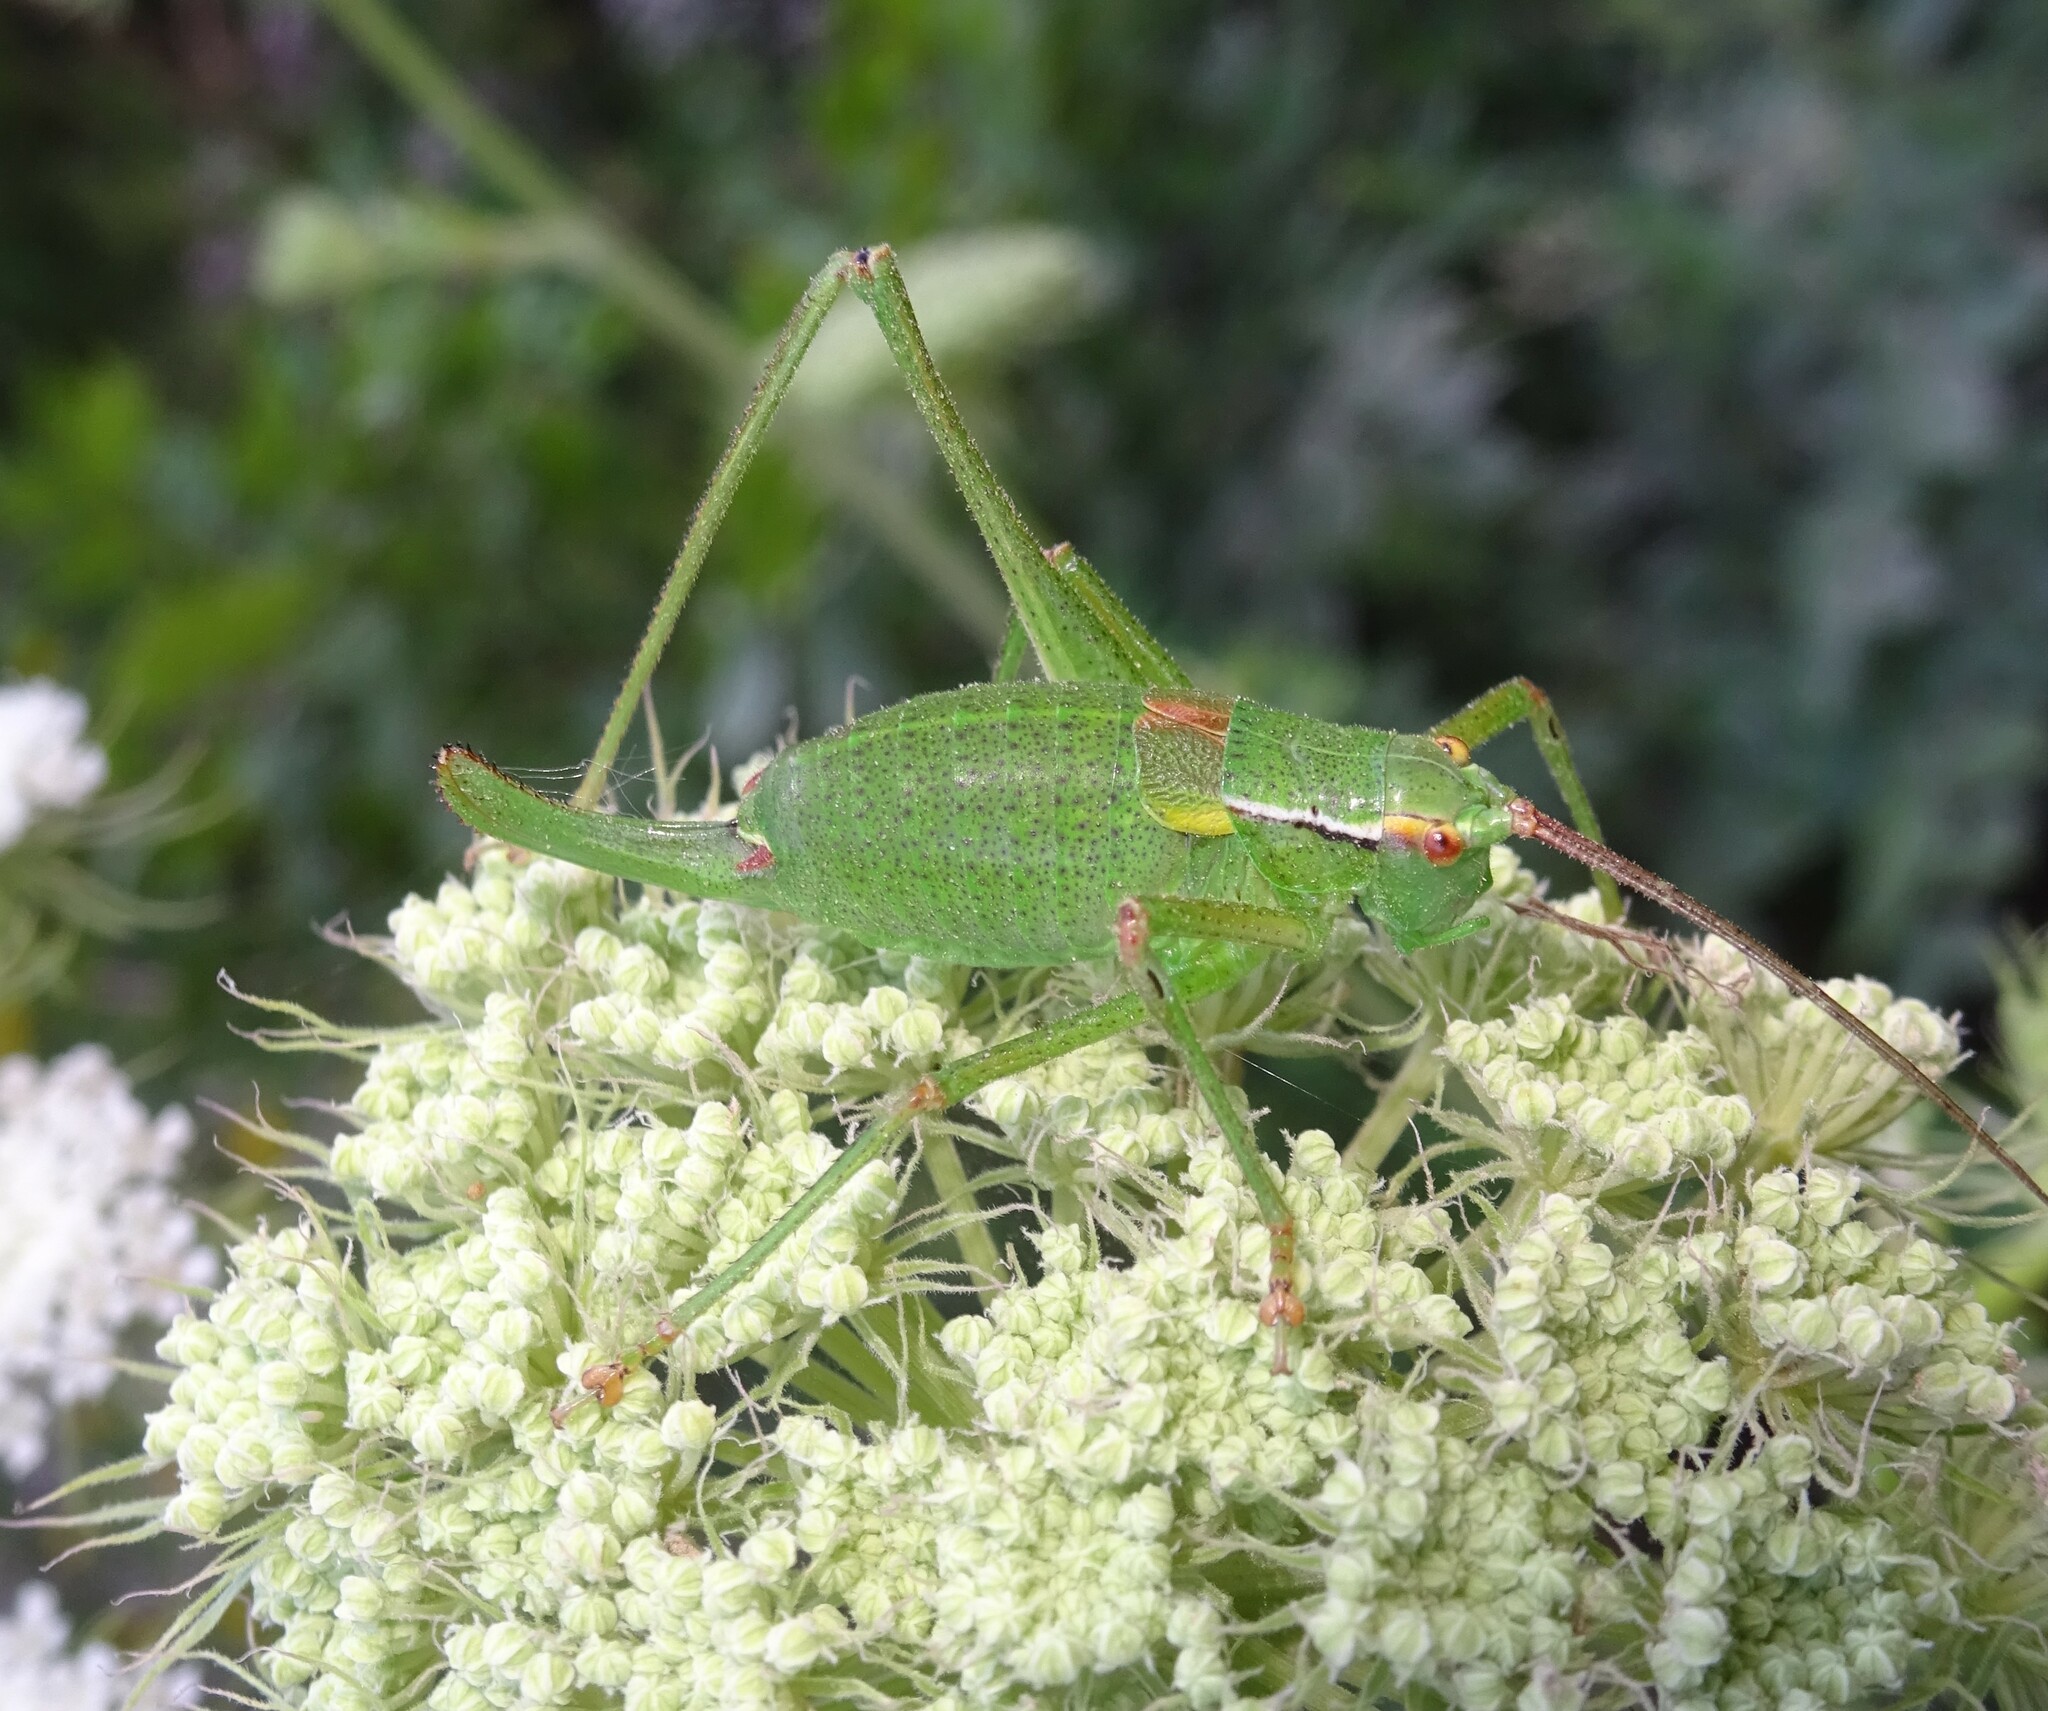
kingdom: Animalia
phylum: Arthropoda
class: Insecta
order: Orthoptera
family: Tettigoniidae
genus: Barbitistes
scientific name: Barbitistes constrictus
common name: Eastern saw-tailed bush cricket
